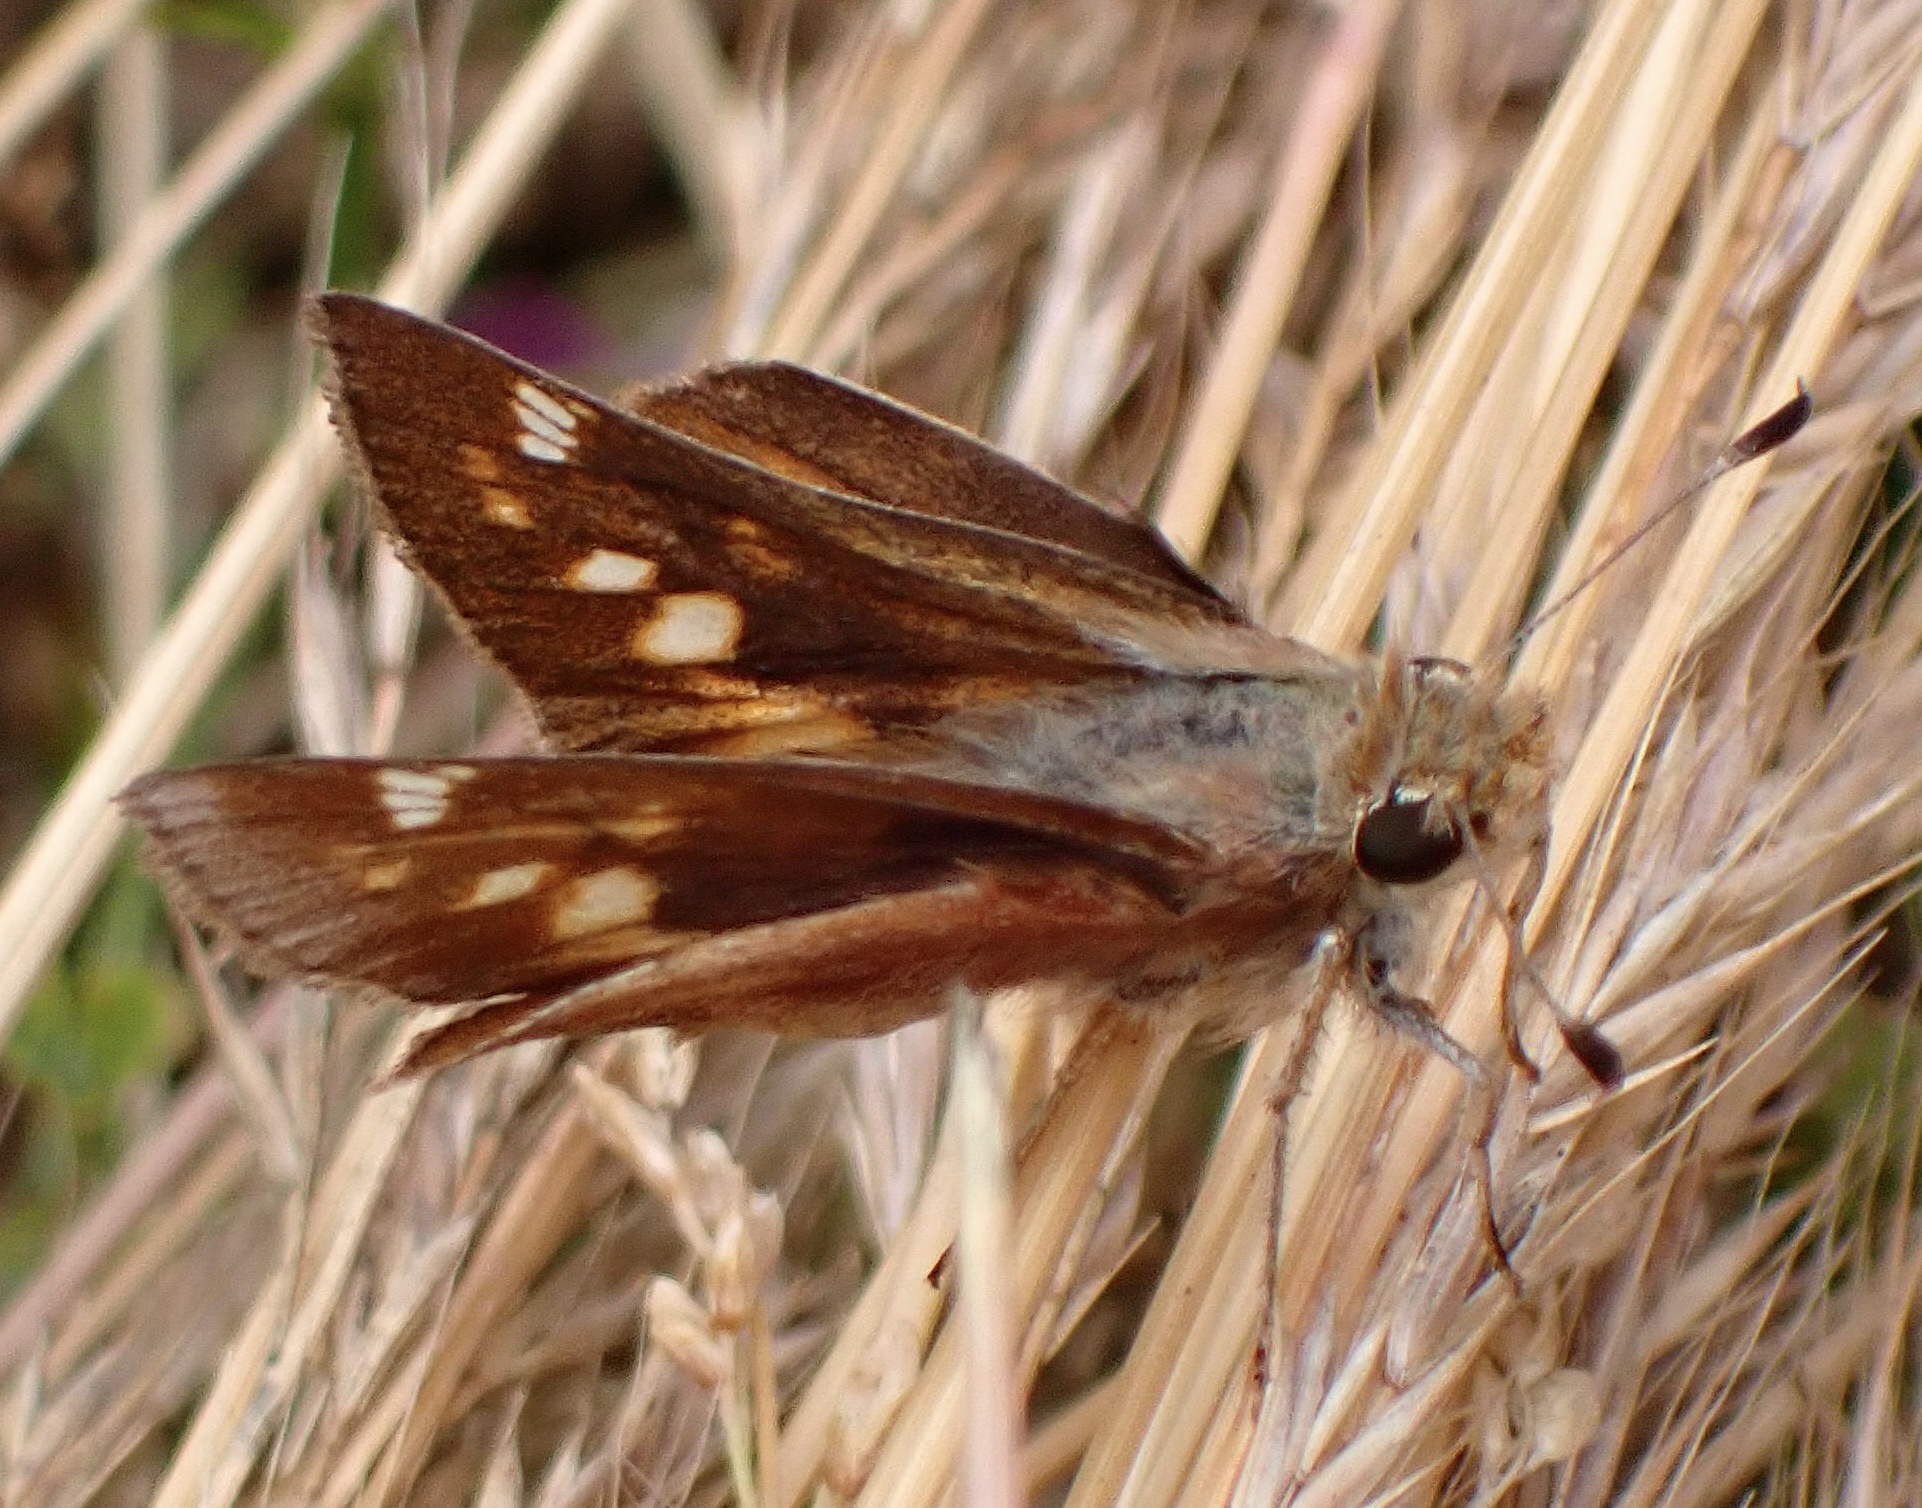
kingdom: Animalia
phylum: Arthropoda
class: Insecta
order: Lepidoptera
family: Hesperiidae
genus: Lon
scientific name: Lon melane
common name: Umber skipper
